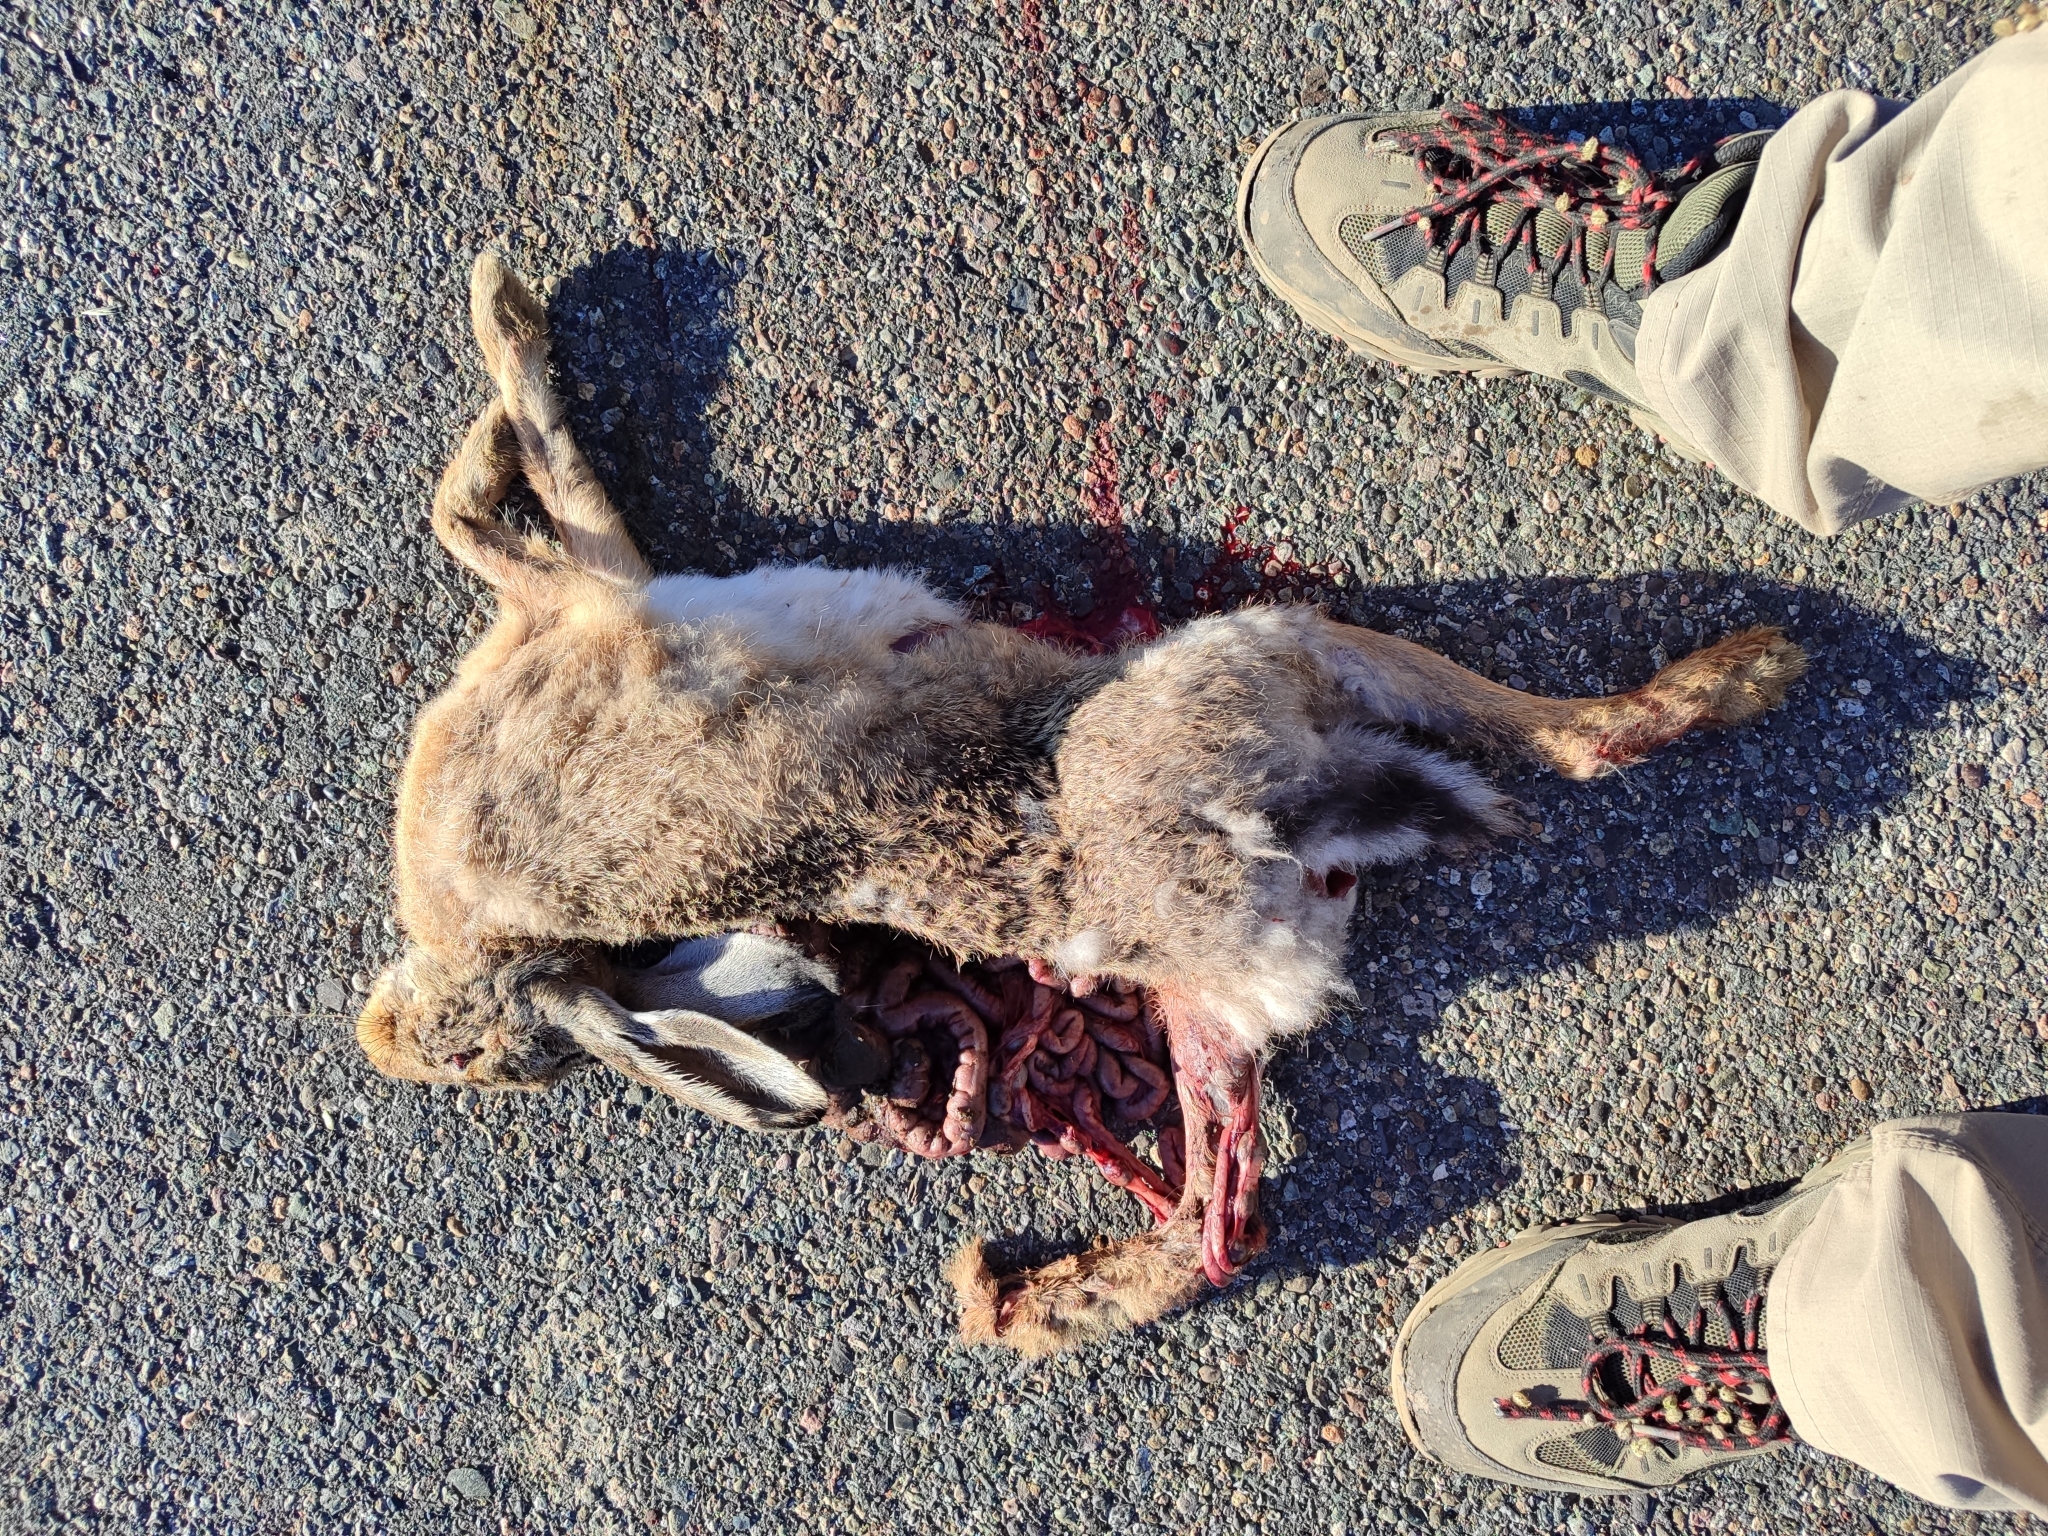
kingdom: Animalia
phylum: Chordata
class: Mammalia
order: Lagomorpha
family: Leporidae
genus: Lepus
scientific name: Lepus europaeus
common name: European hare
